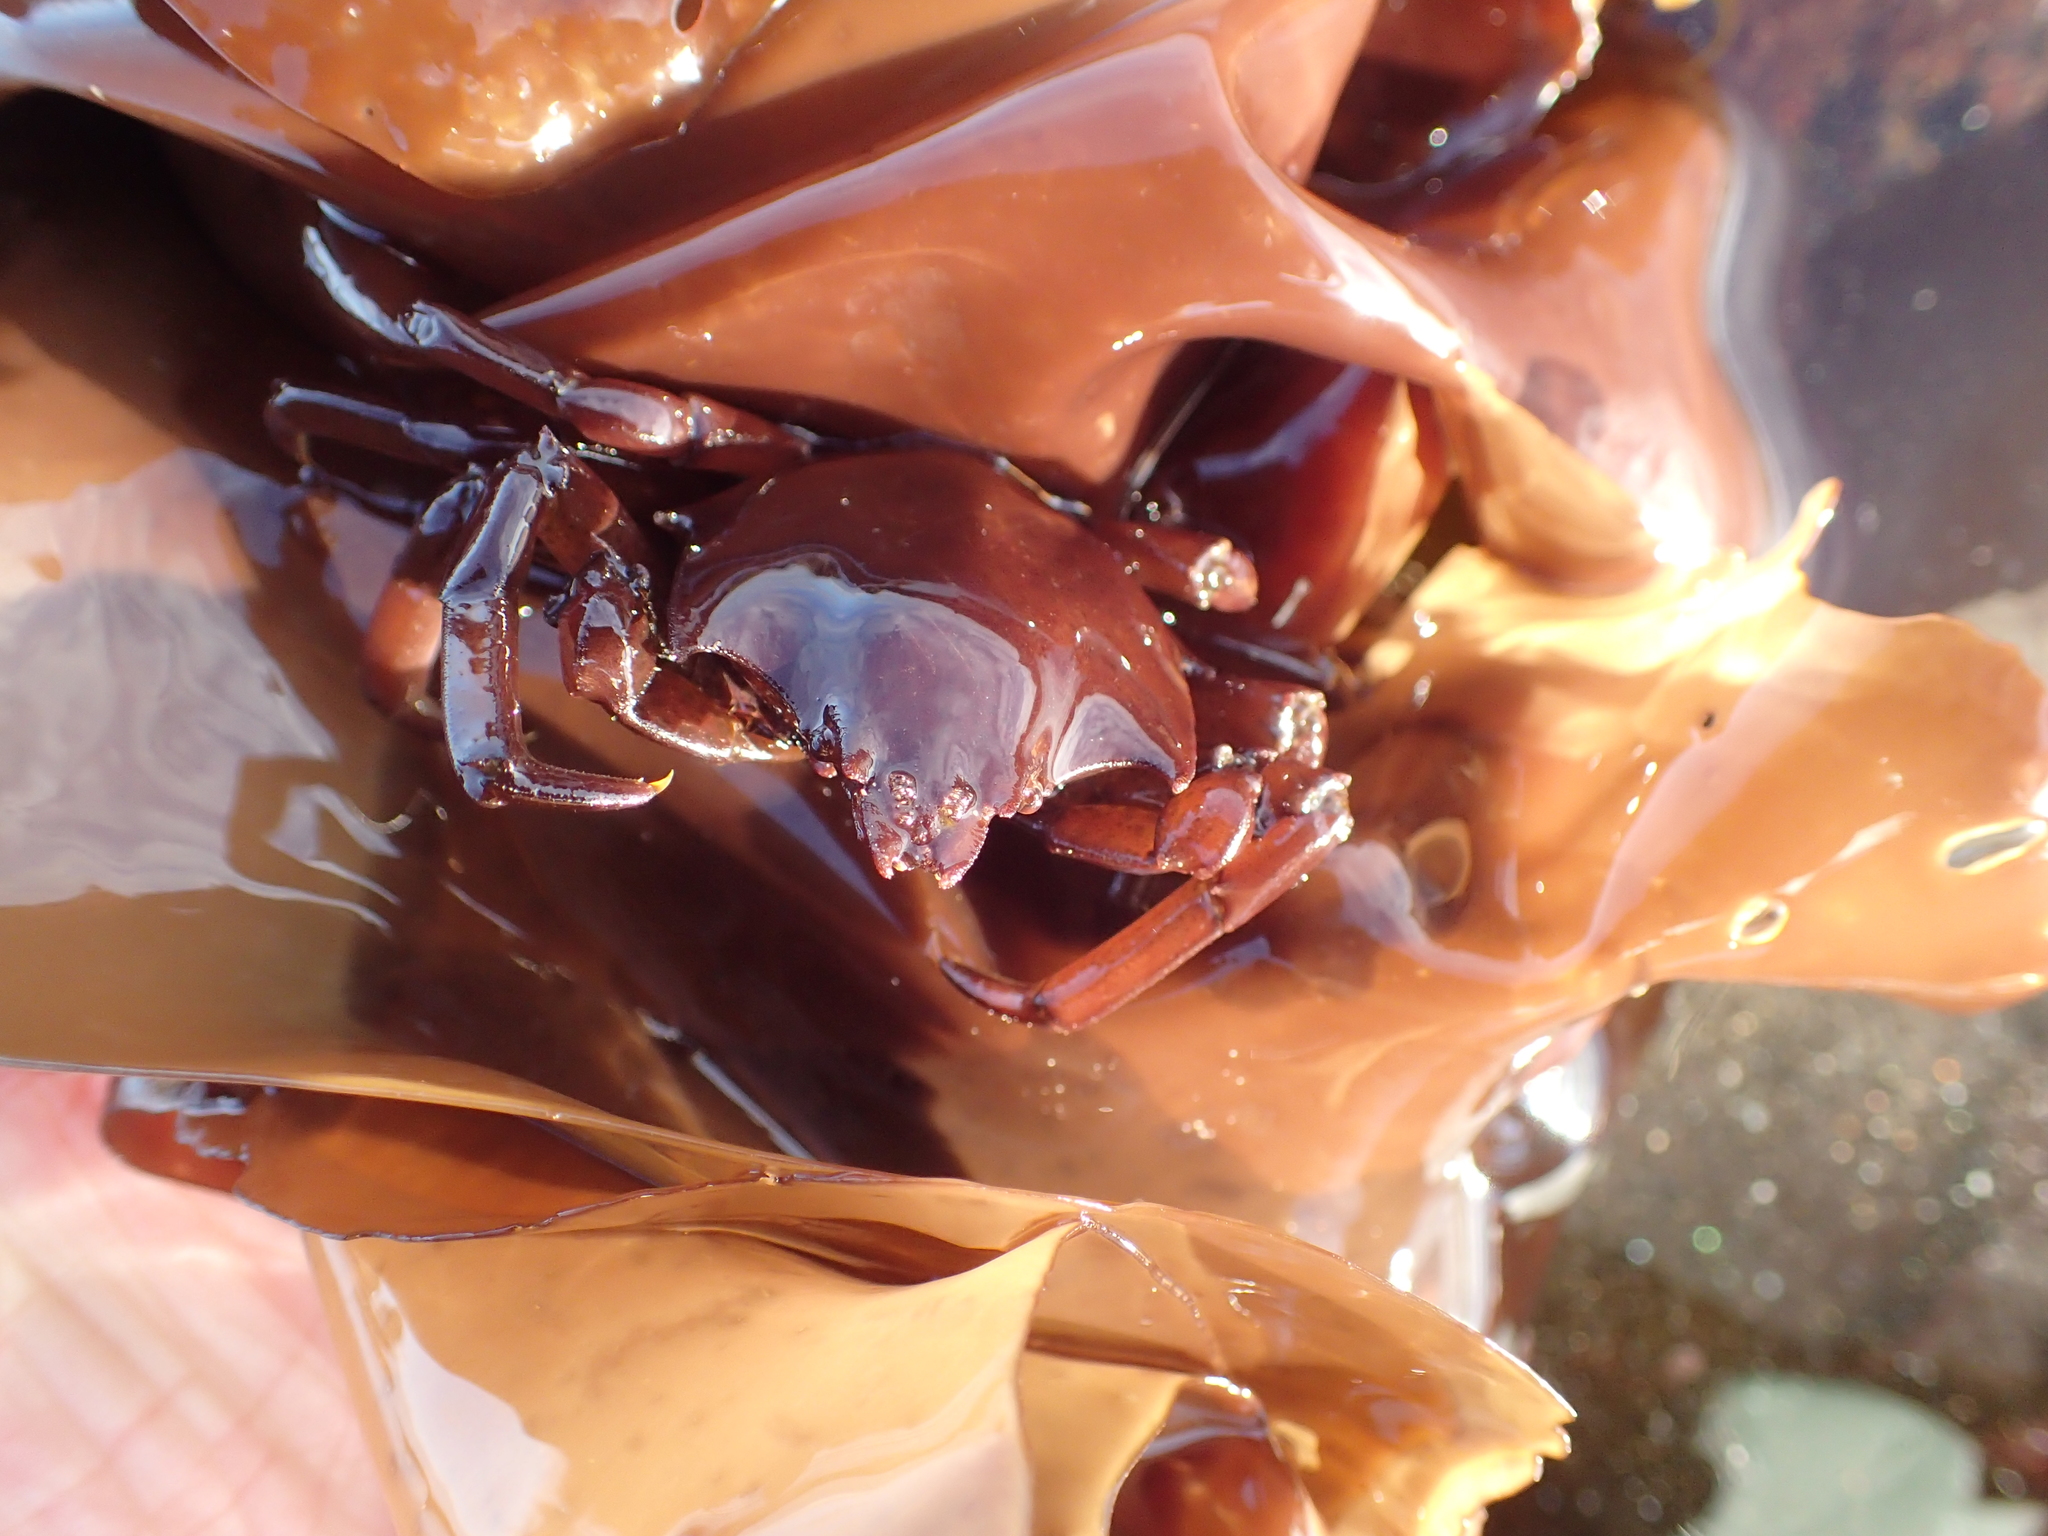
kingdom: Animalia
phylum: Arthropoda
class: Malacostraca
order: Decapoda
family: Epialtidae
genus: Pugettia
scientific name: Pugettia producta
